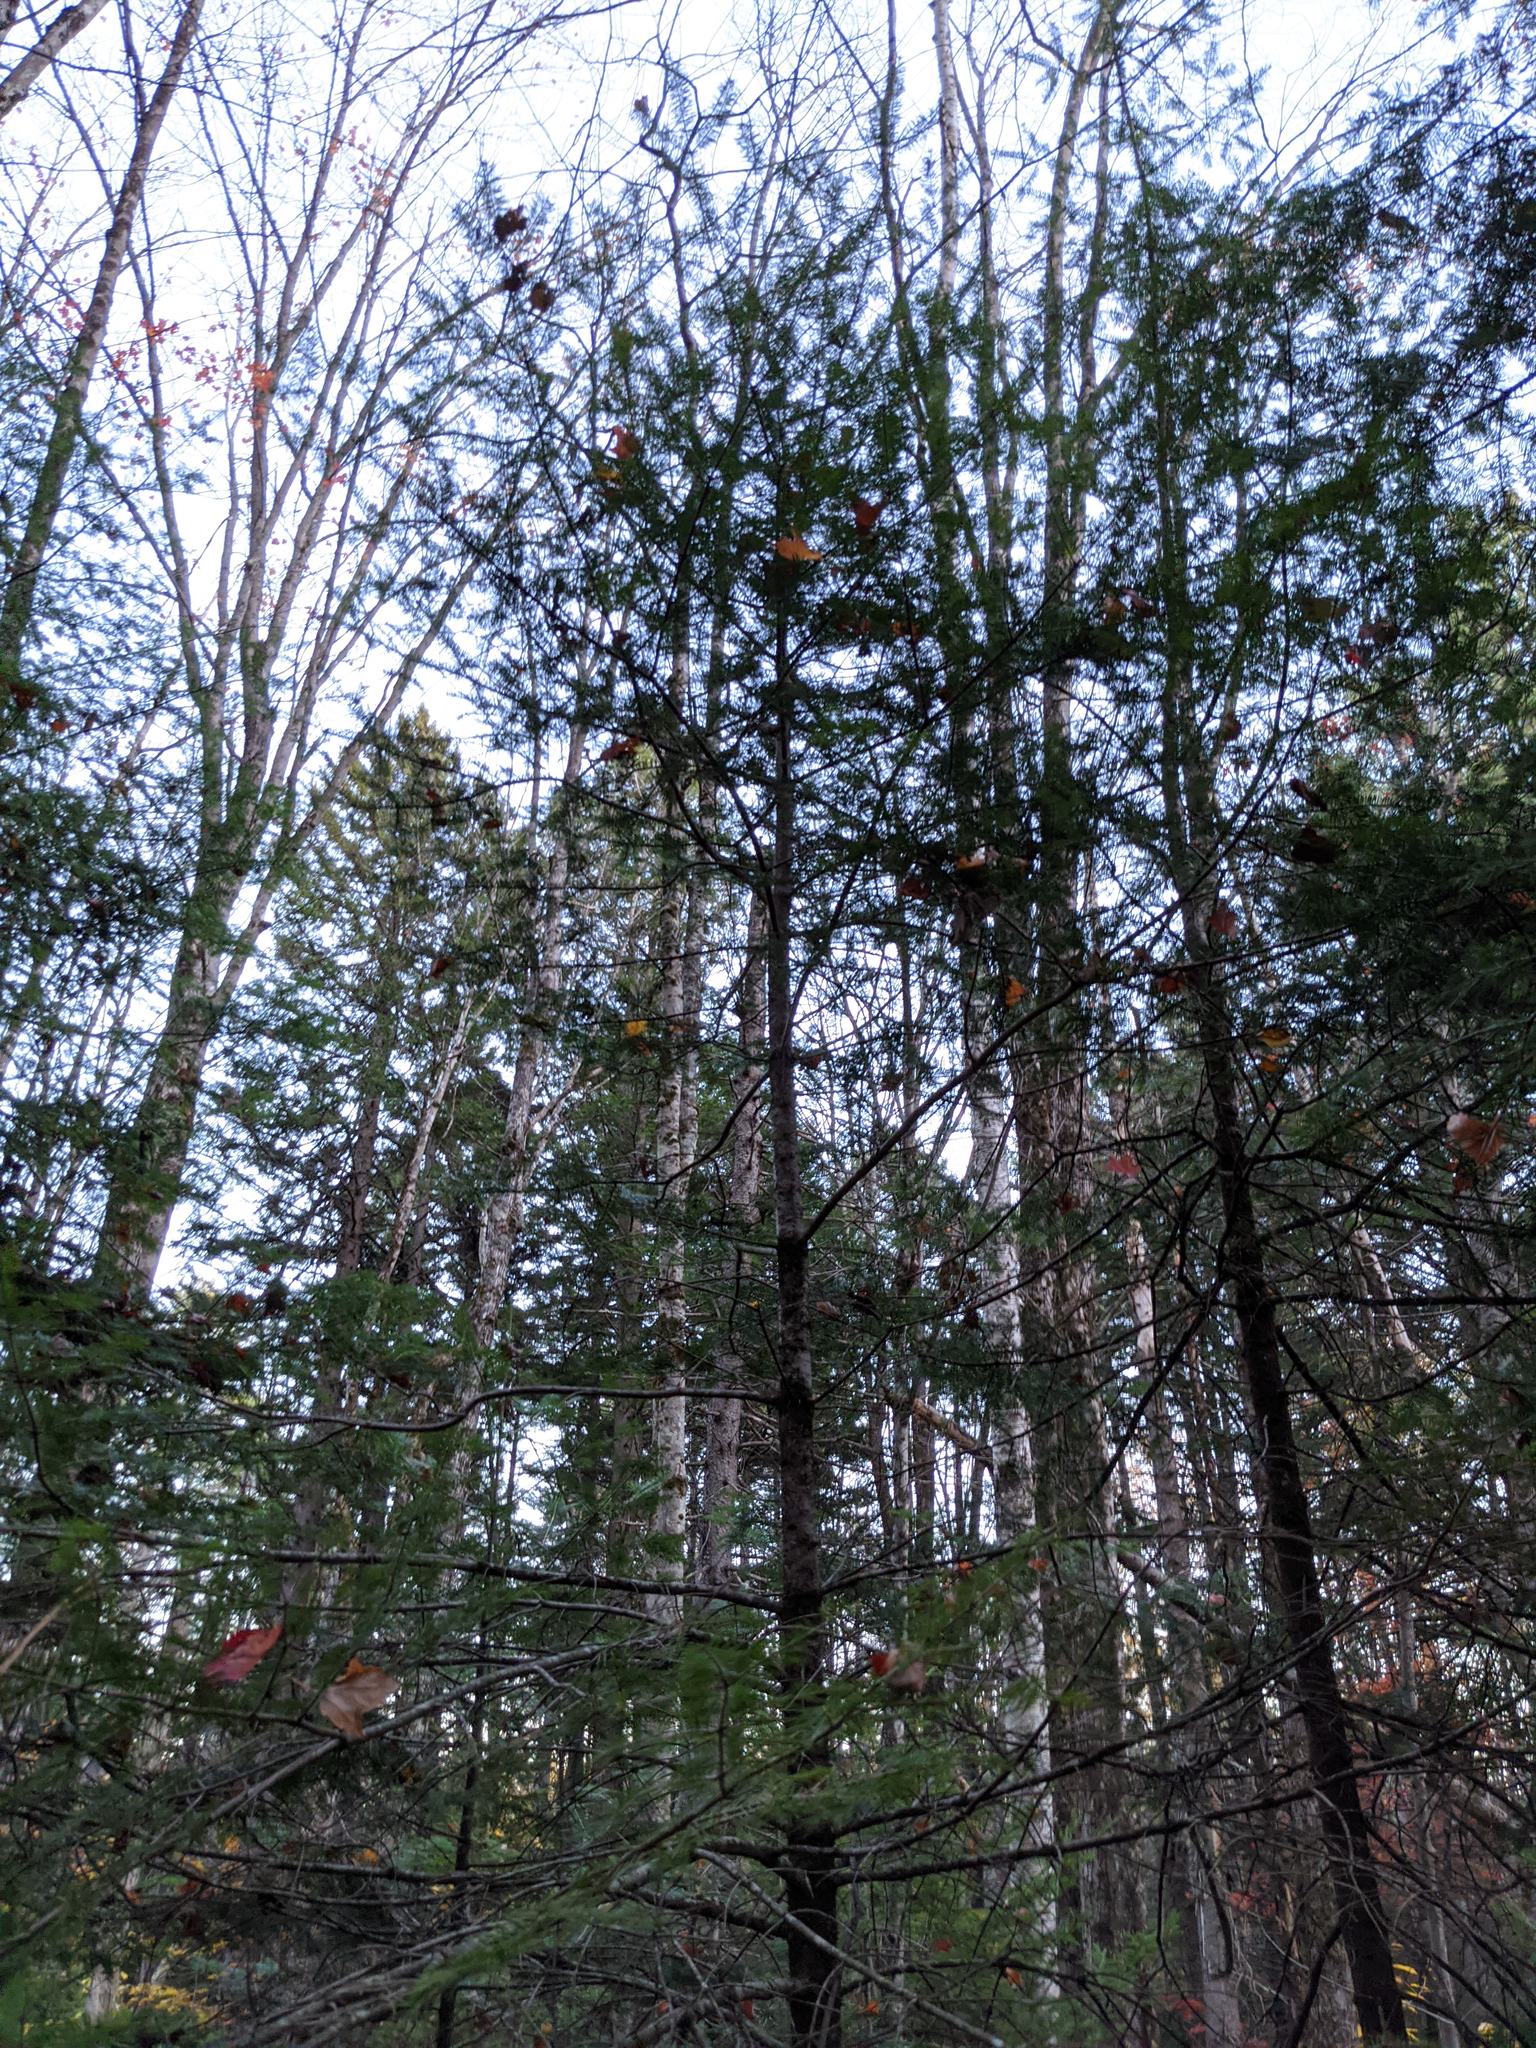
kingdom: Plantae
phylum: Tracheophyta
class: Pinopsida
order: Pinales
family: Pinaceae
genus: Abies
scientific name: Abies balsamea
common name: Balsam fir
